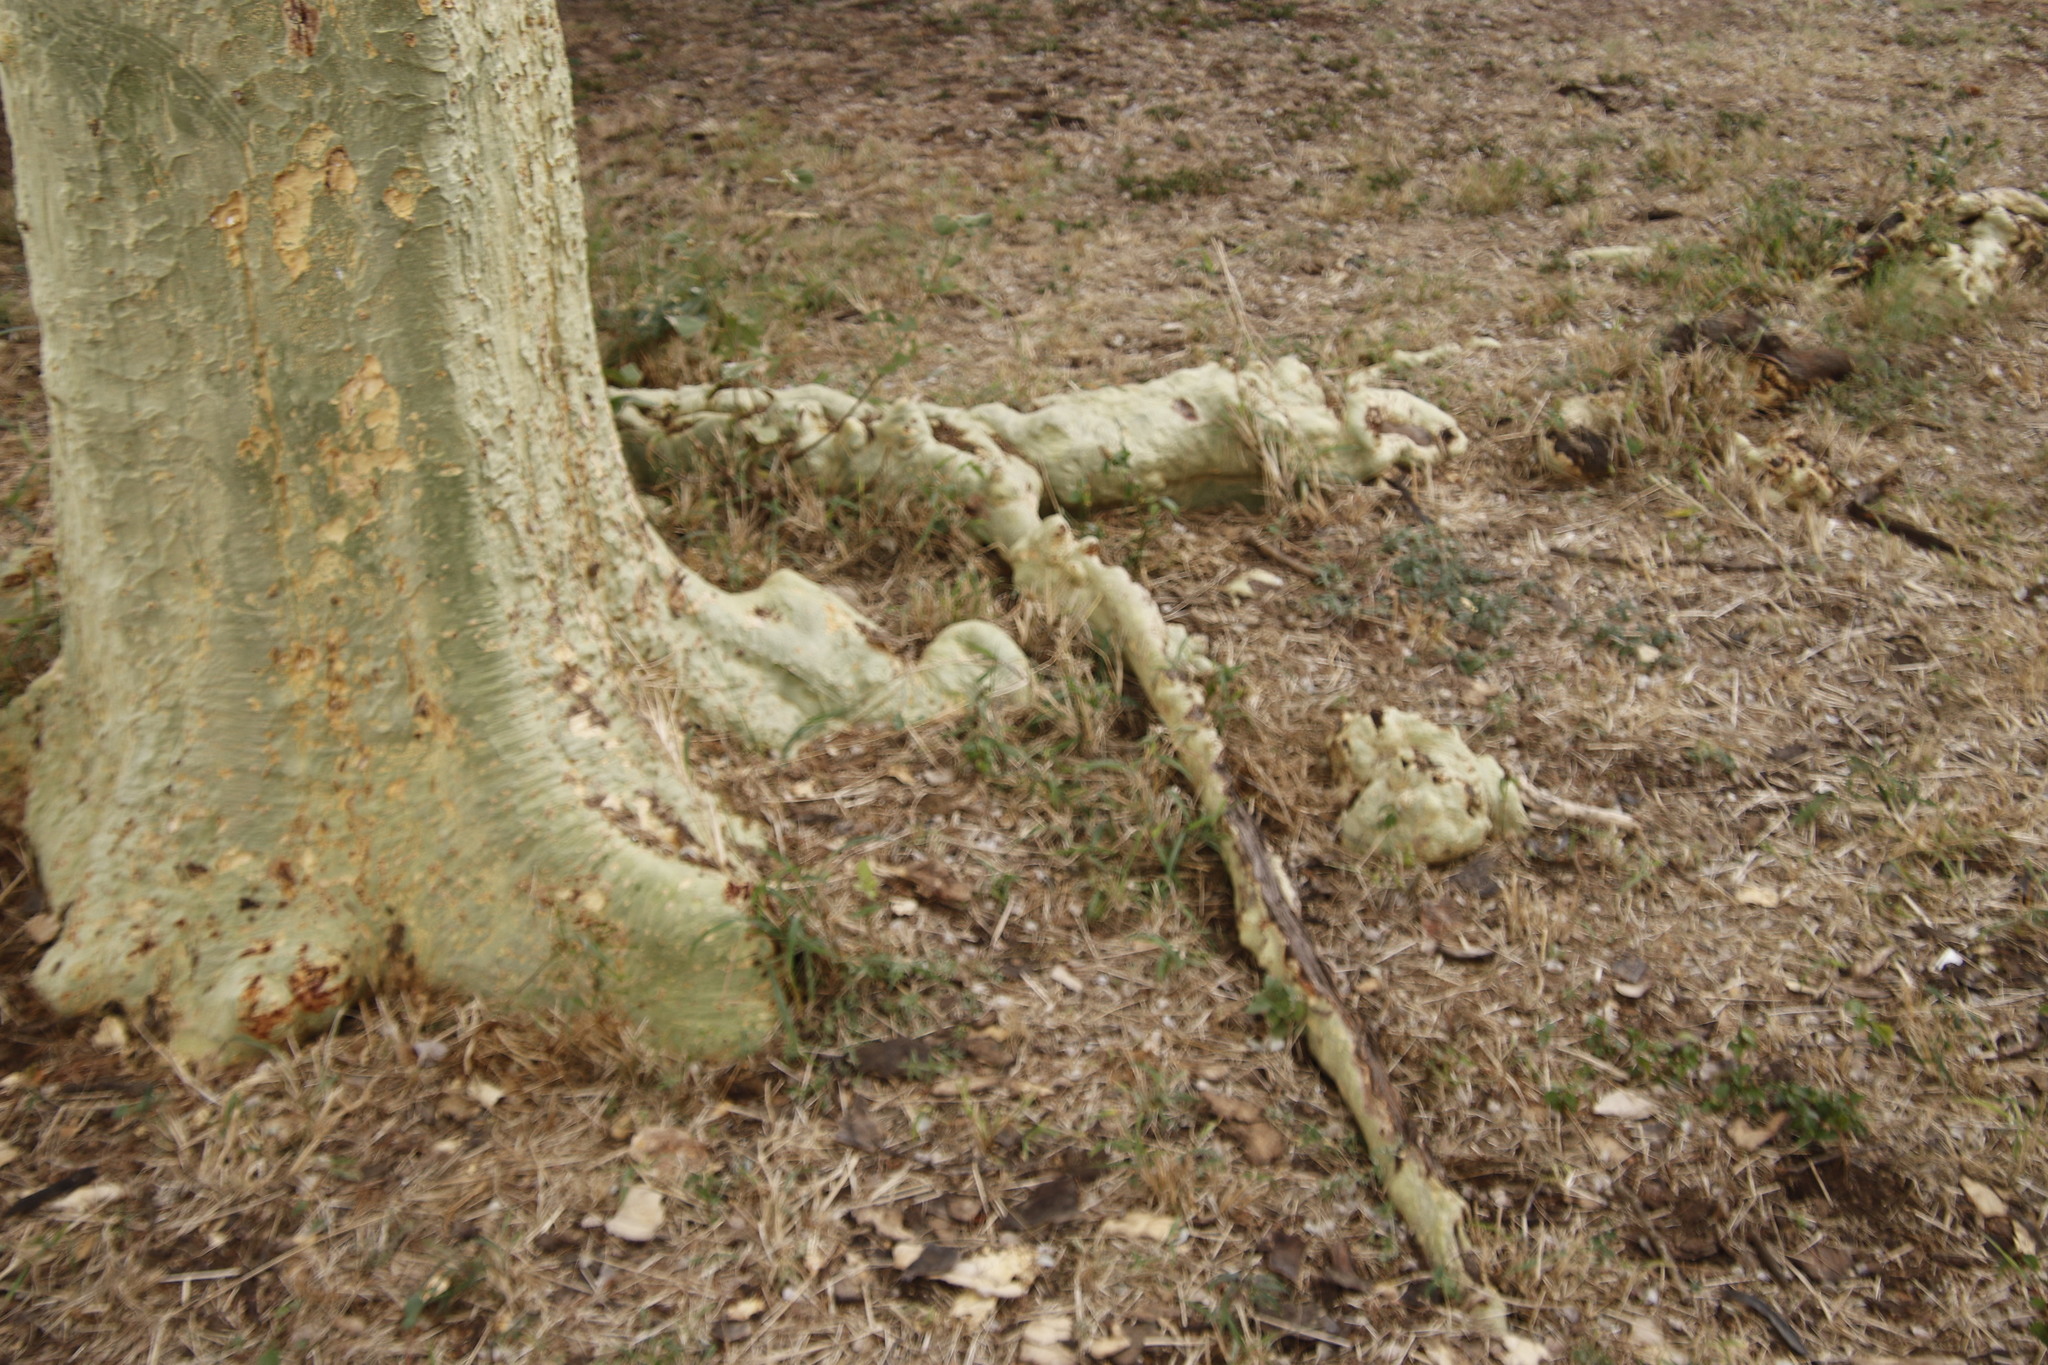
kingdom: Plantae
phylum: Tracheophyta
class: Magnoliopsida
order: Fabales
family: Fabaceae
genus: Vachellia
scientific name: Vachellia xanthophloea
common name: Fever tree
